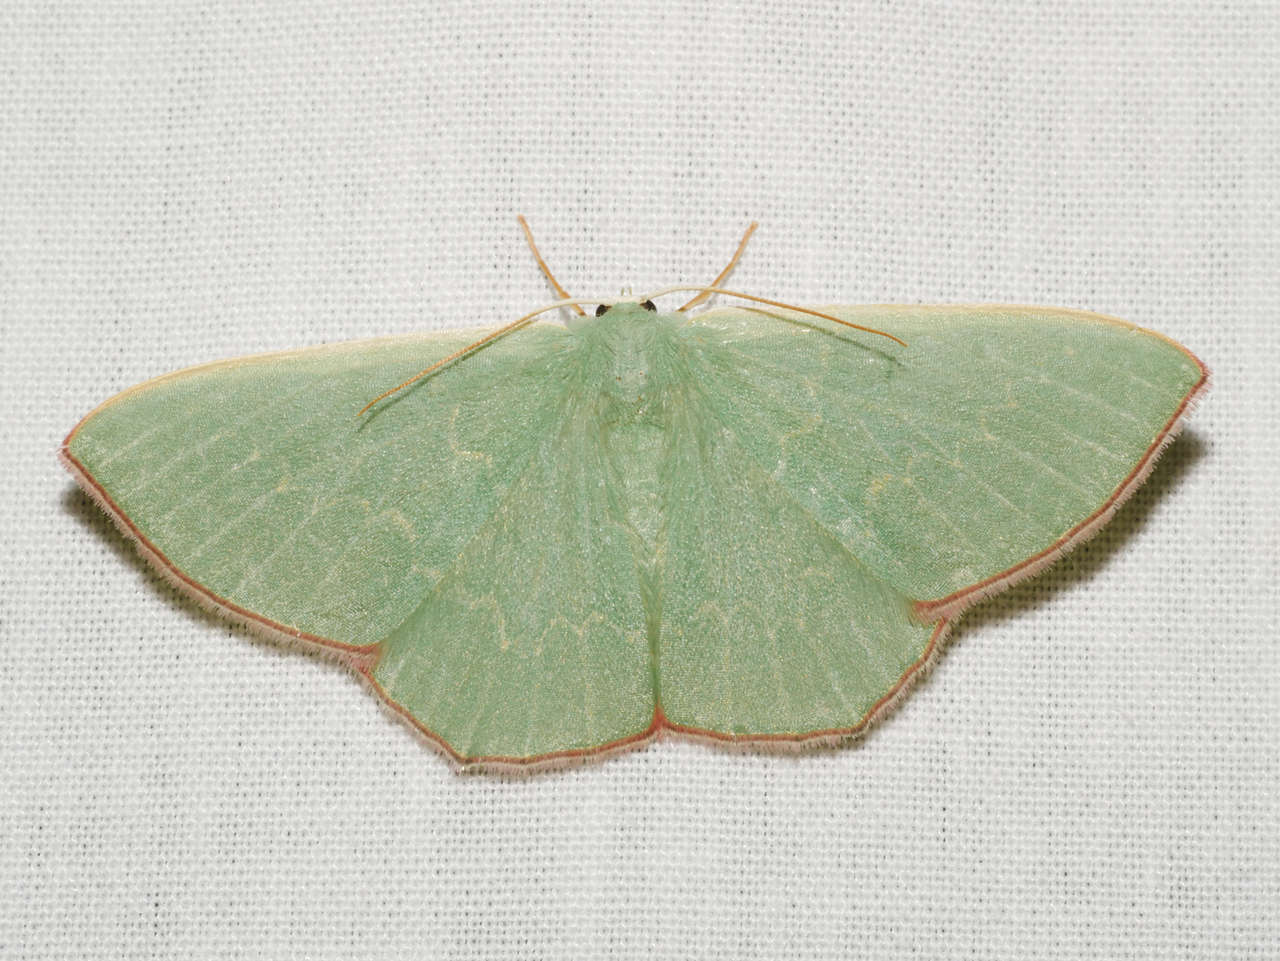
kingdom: Animalia
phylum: Arthropoda
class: Insecta
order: Lepidoptera
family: Geometridae
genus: Prasinocyma
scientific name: Prasinocyma semicrocea
